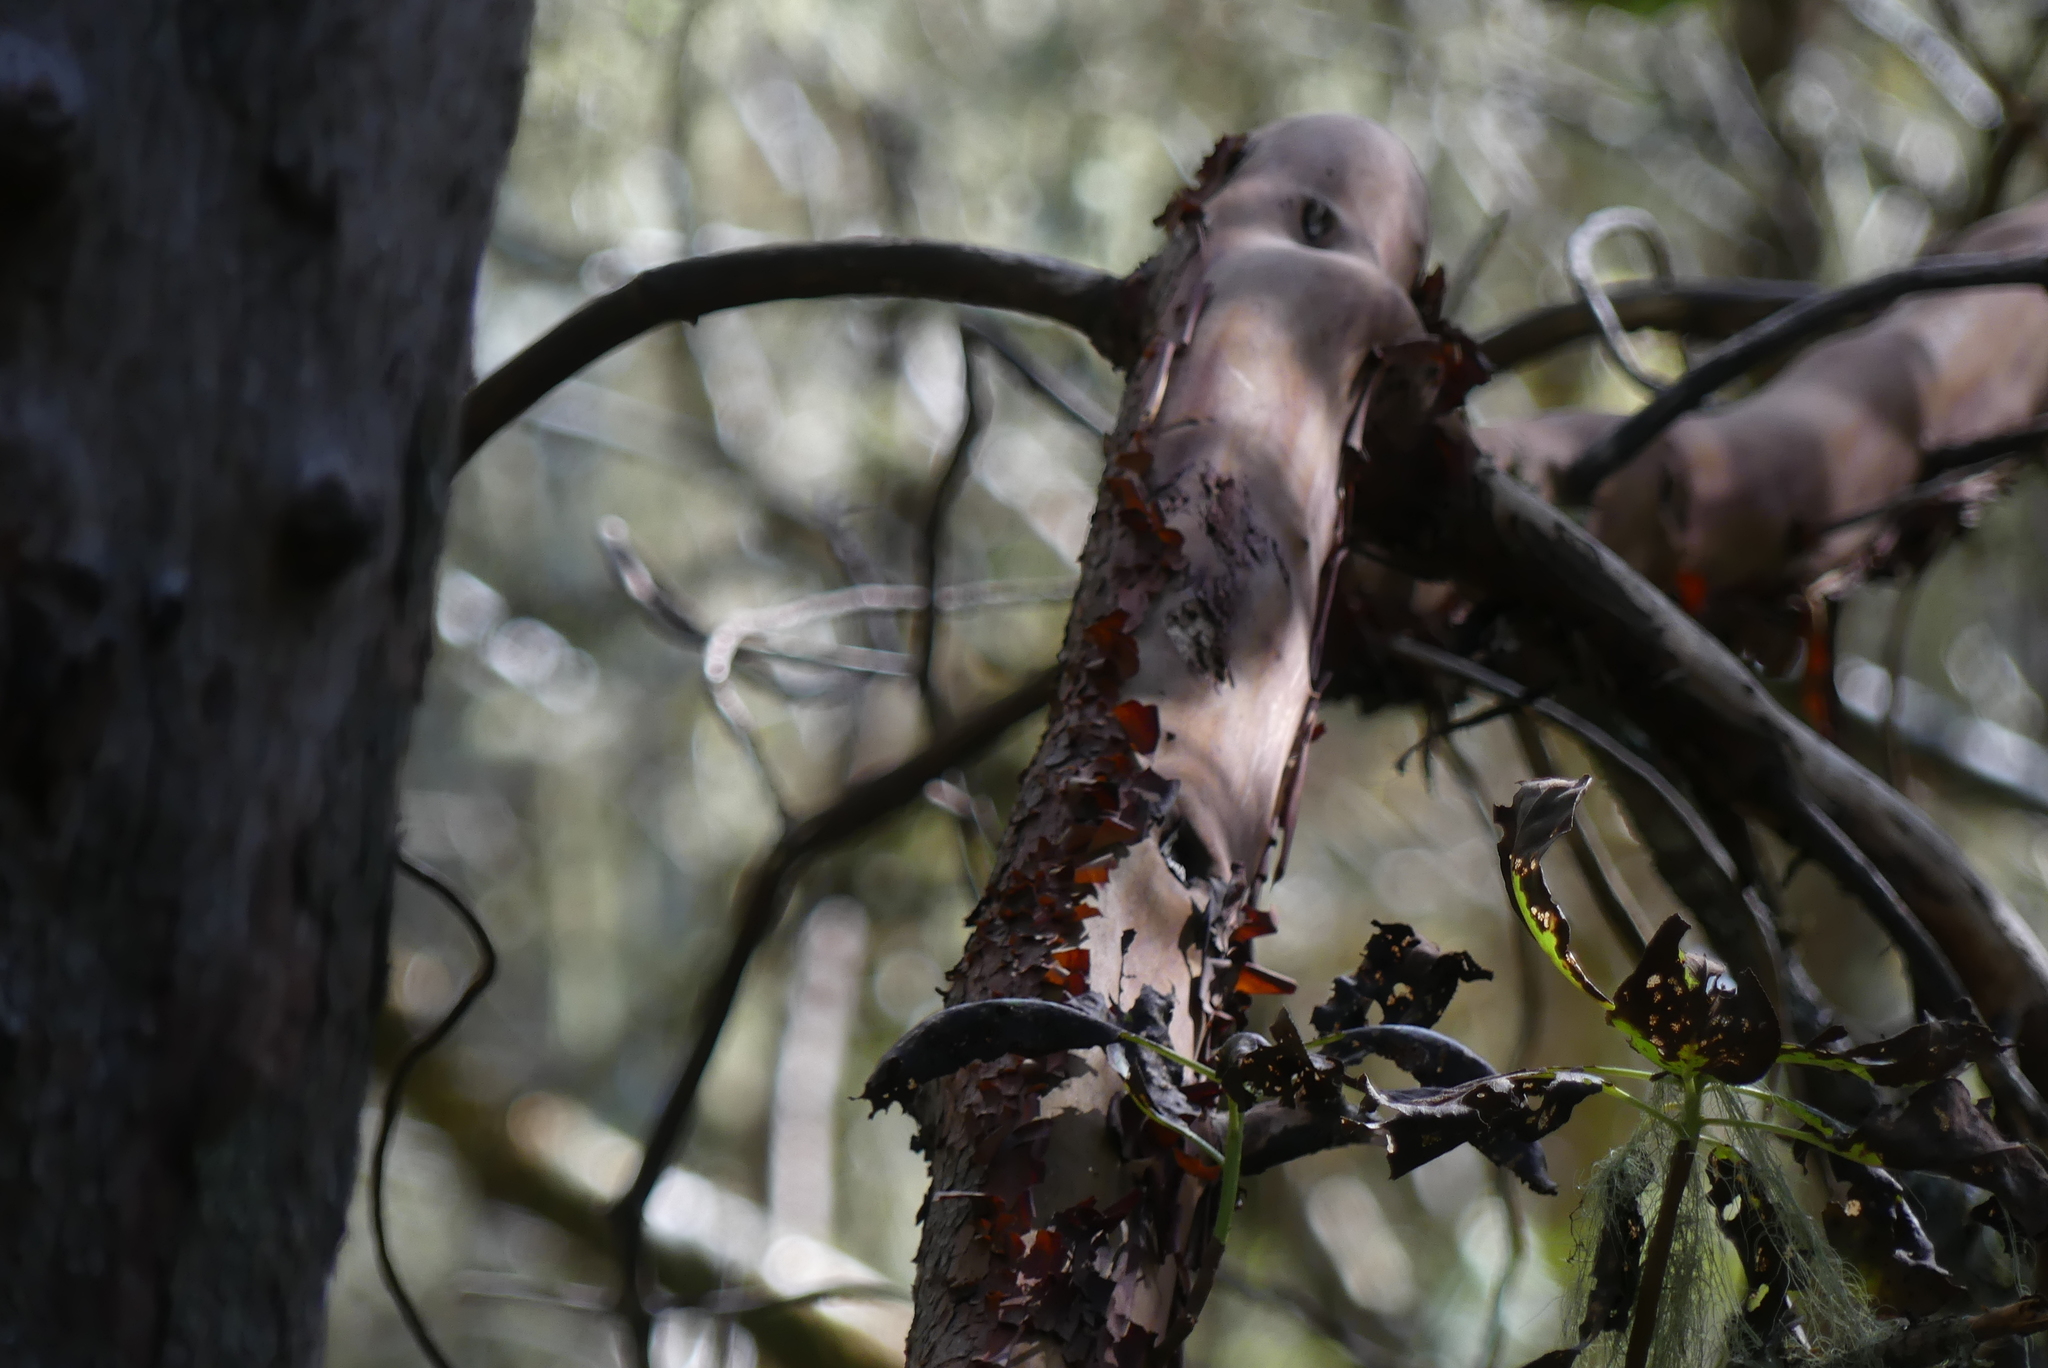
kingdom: Plantae
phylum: Tracheophyta
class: Magnoliopsida
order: Ericales
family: Ericaceae
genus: Arbutus
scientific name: Arbutus menziesii
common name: Pacific madrone
